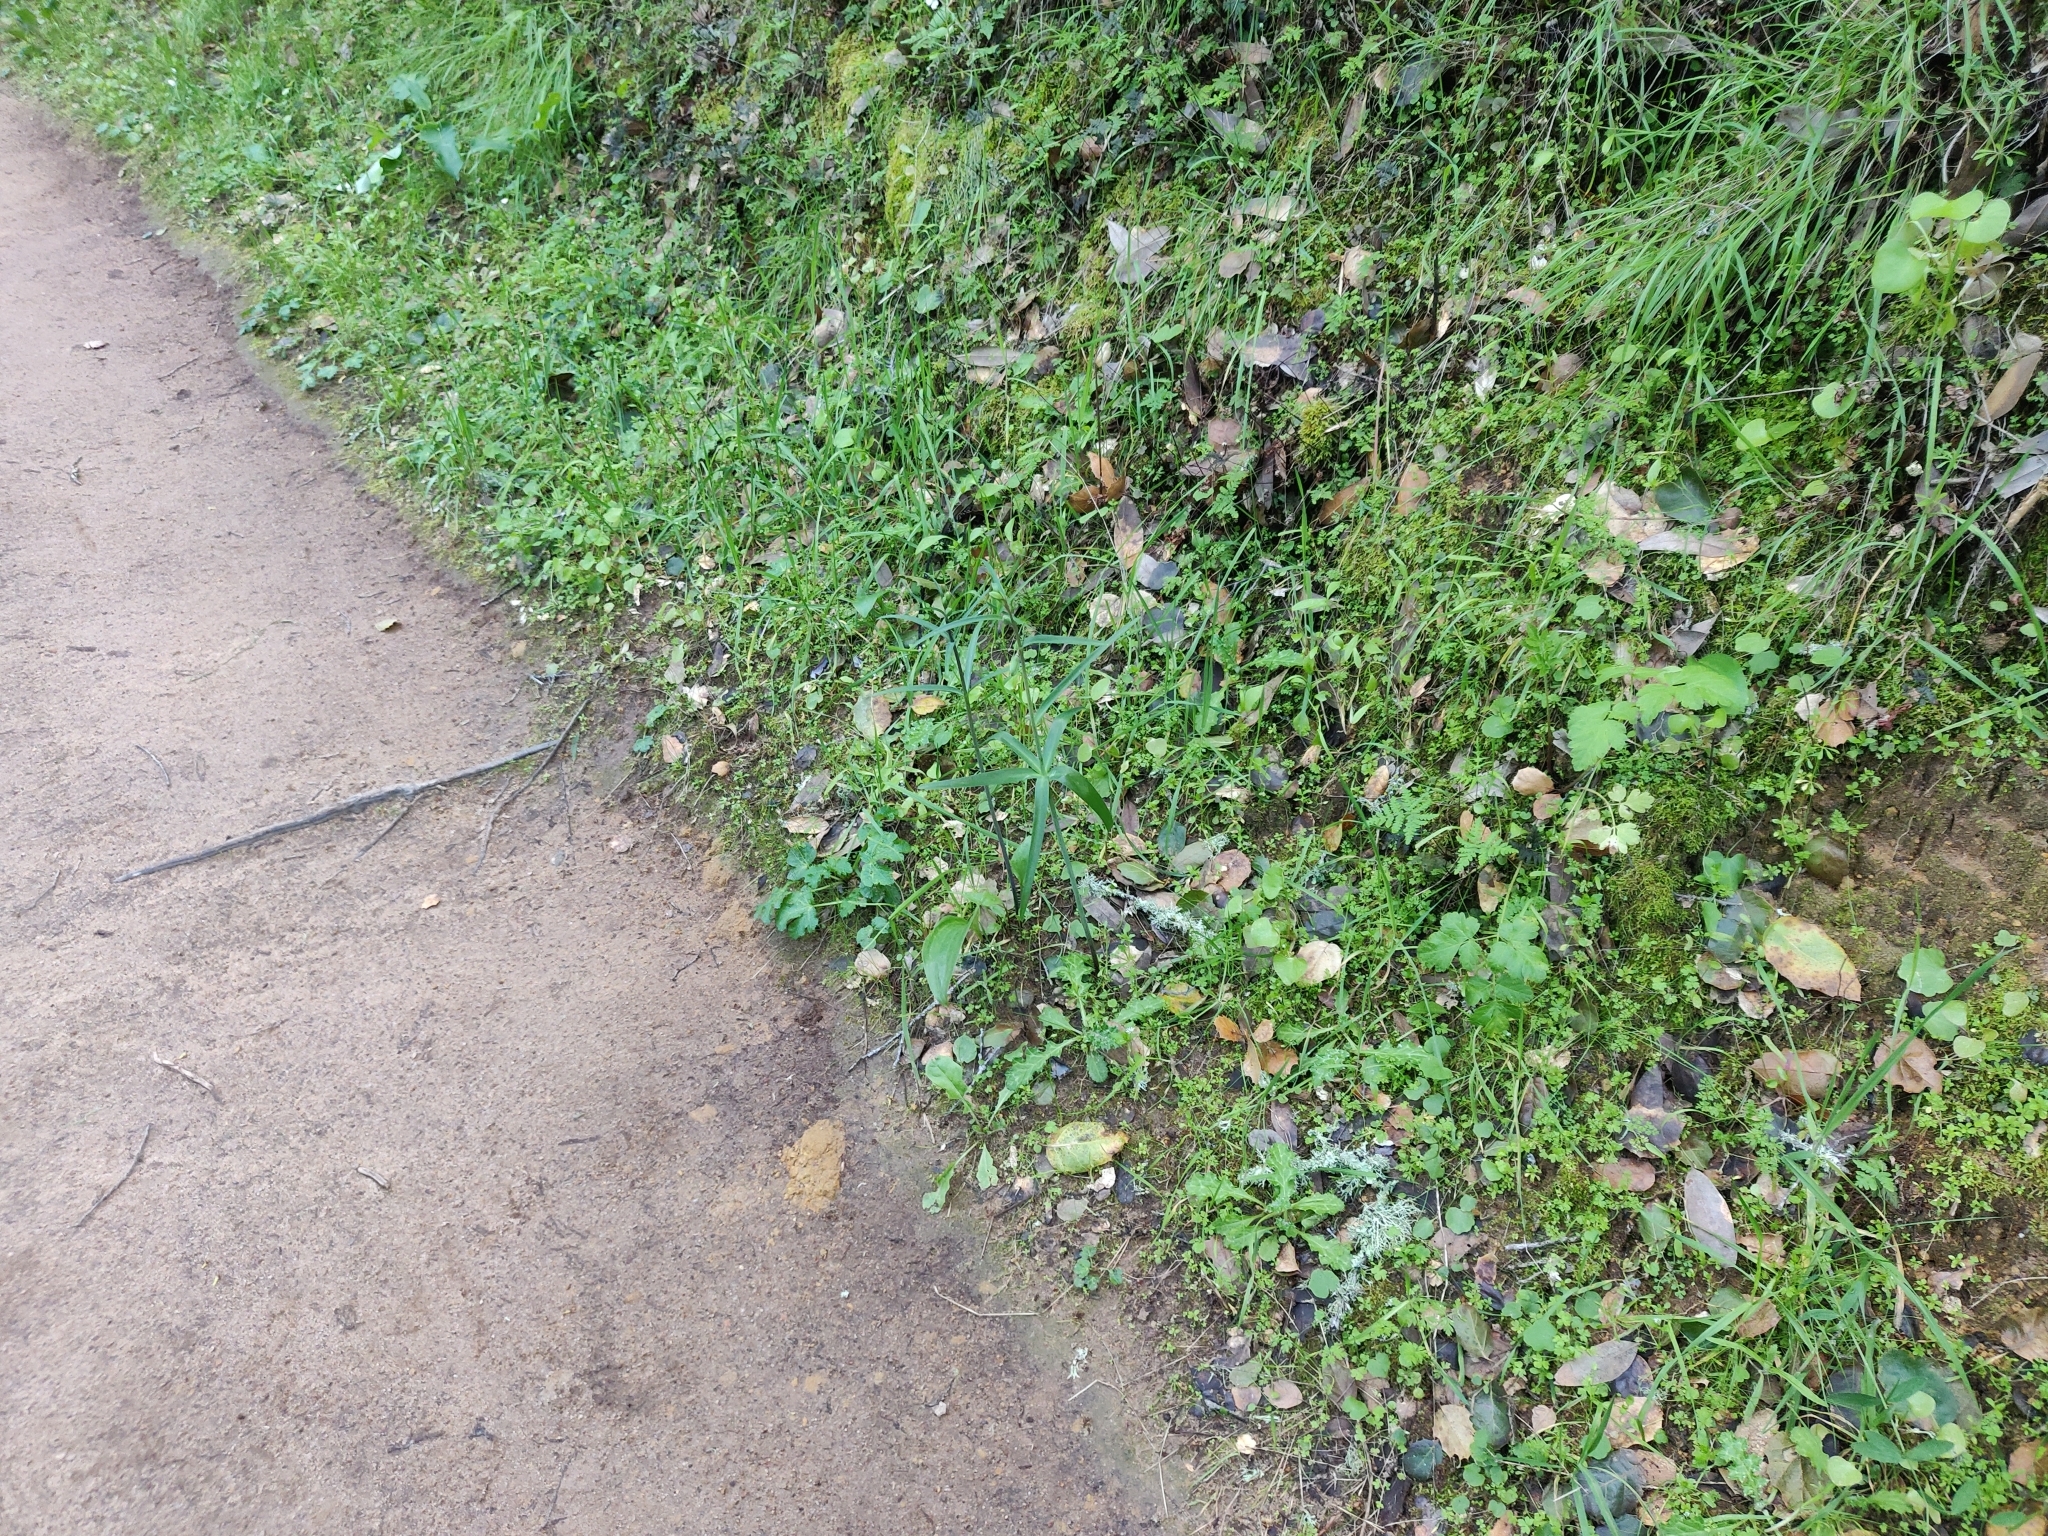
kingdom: Plantae
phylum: Tracheophyta
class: Liliopsida
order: Liliales
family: Liliaceae
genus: Fritillaria
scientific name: Fritillaria affinis
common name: Ojai fritillary
